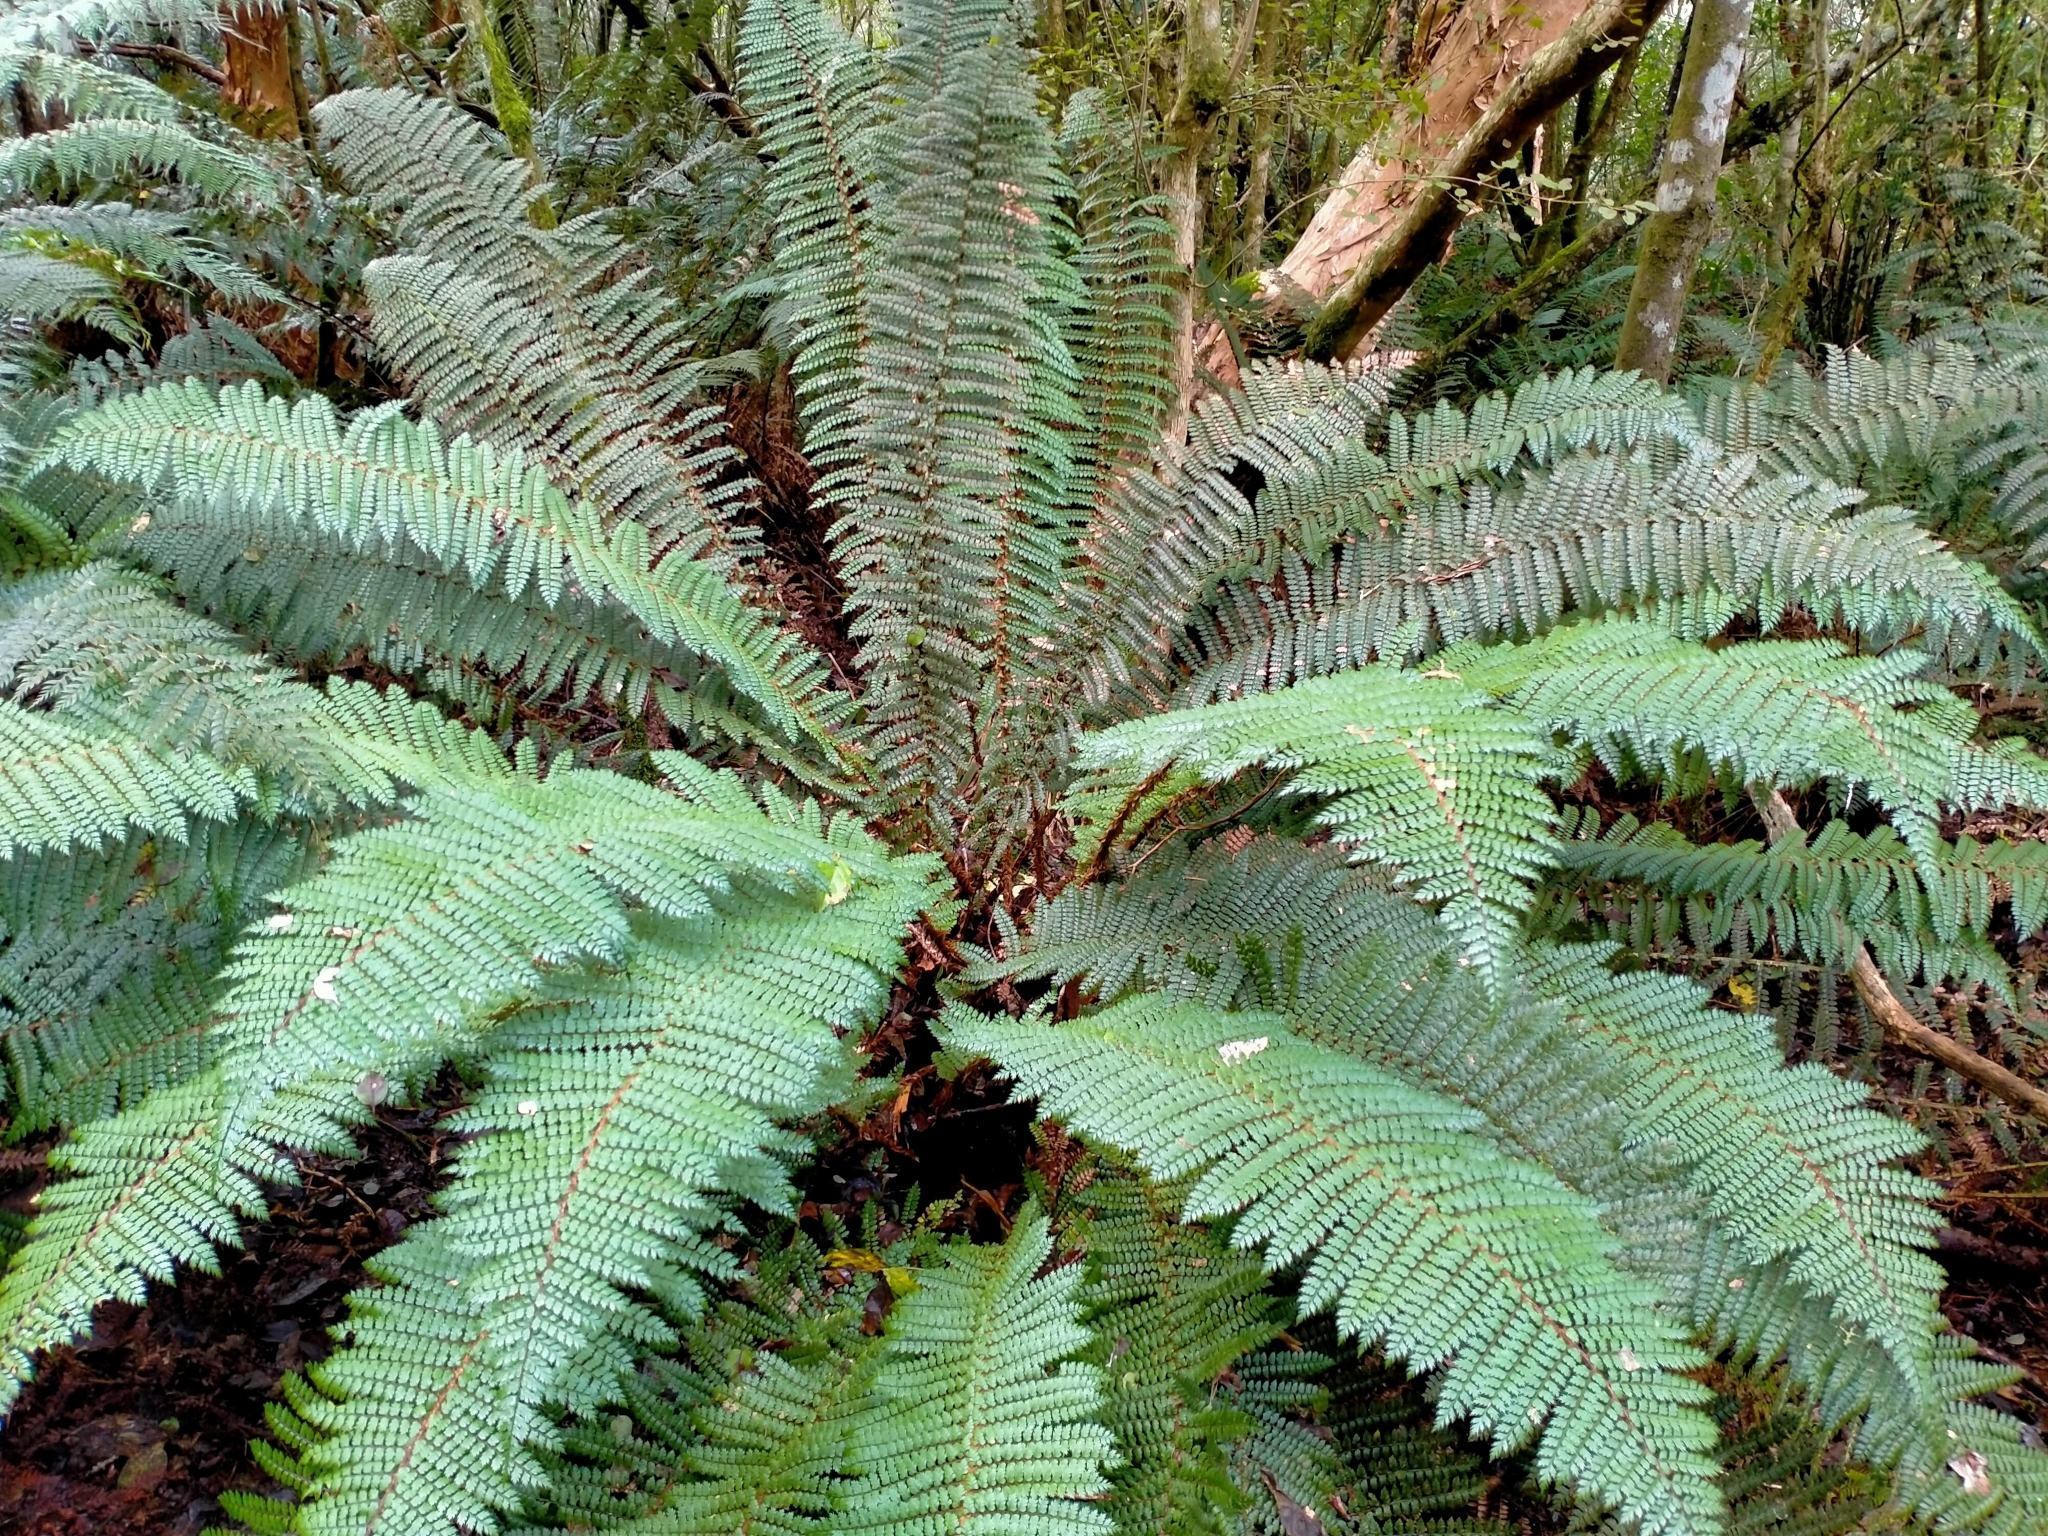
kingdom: Plantae
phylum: Tracheophyta
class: Polypodiopsida
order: Polypodiales
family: Dryopteridaceae
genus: Polystichum
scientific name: Polystichum vestitum
